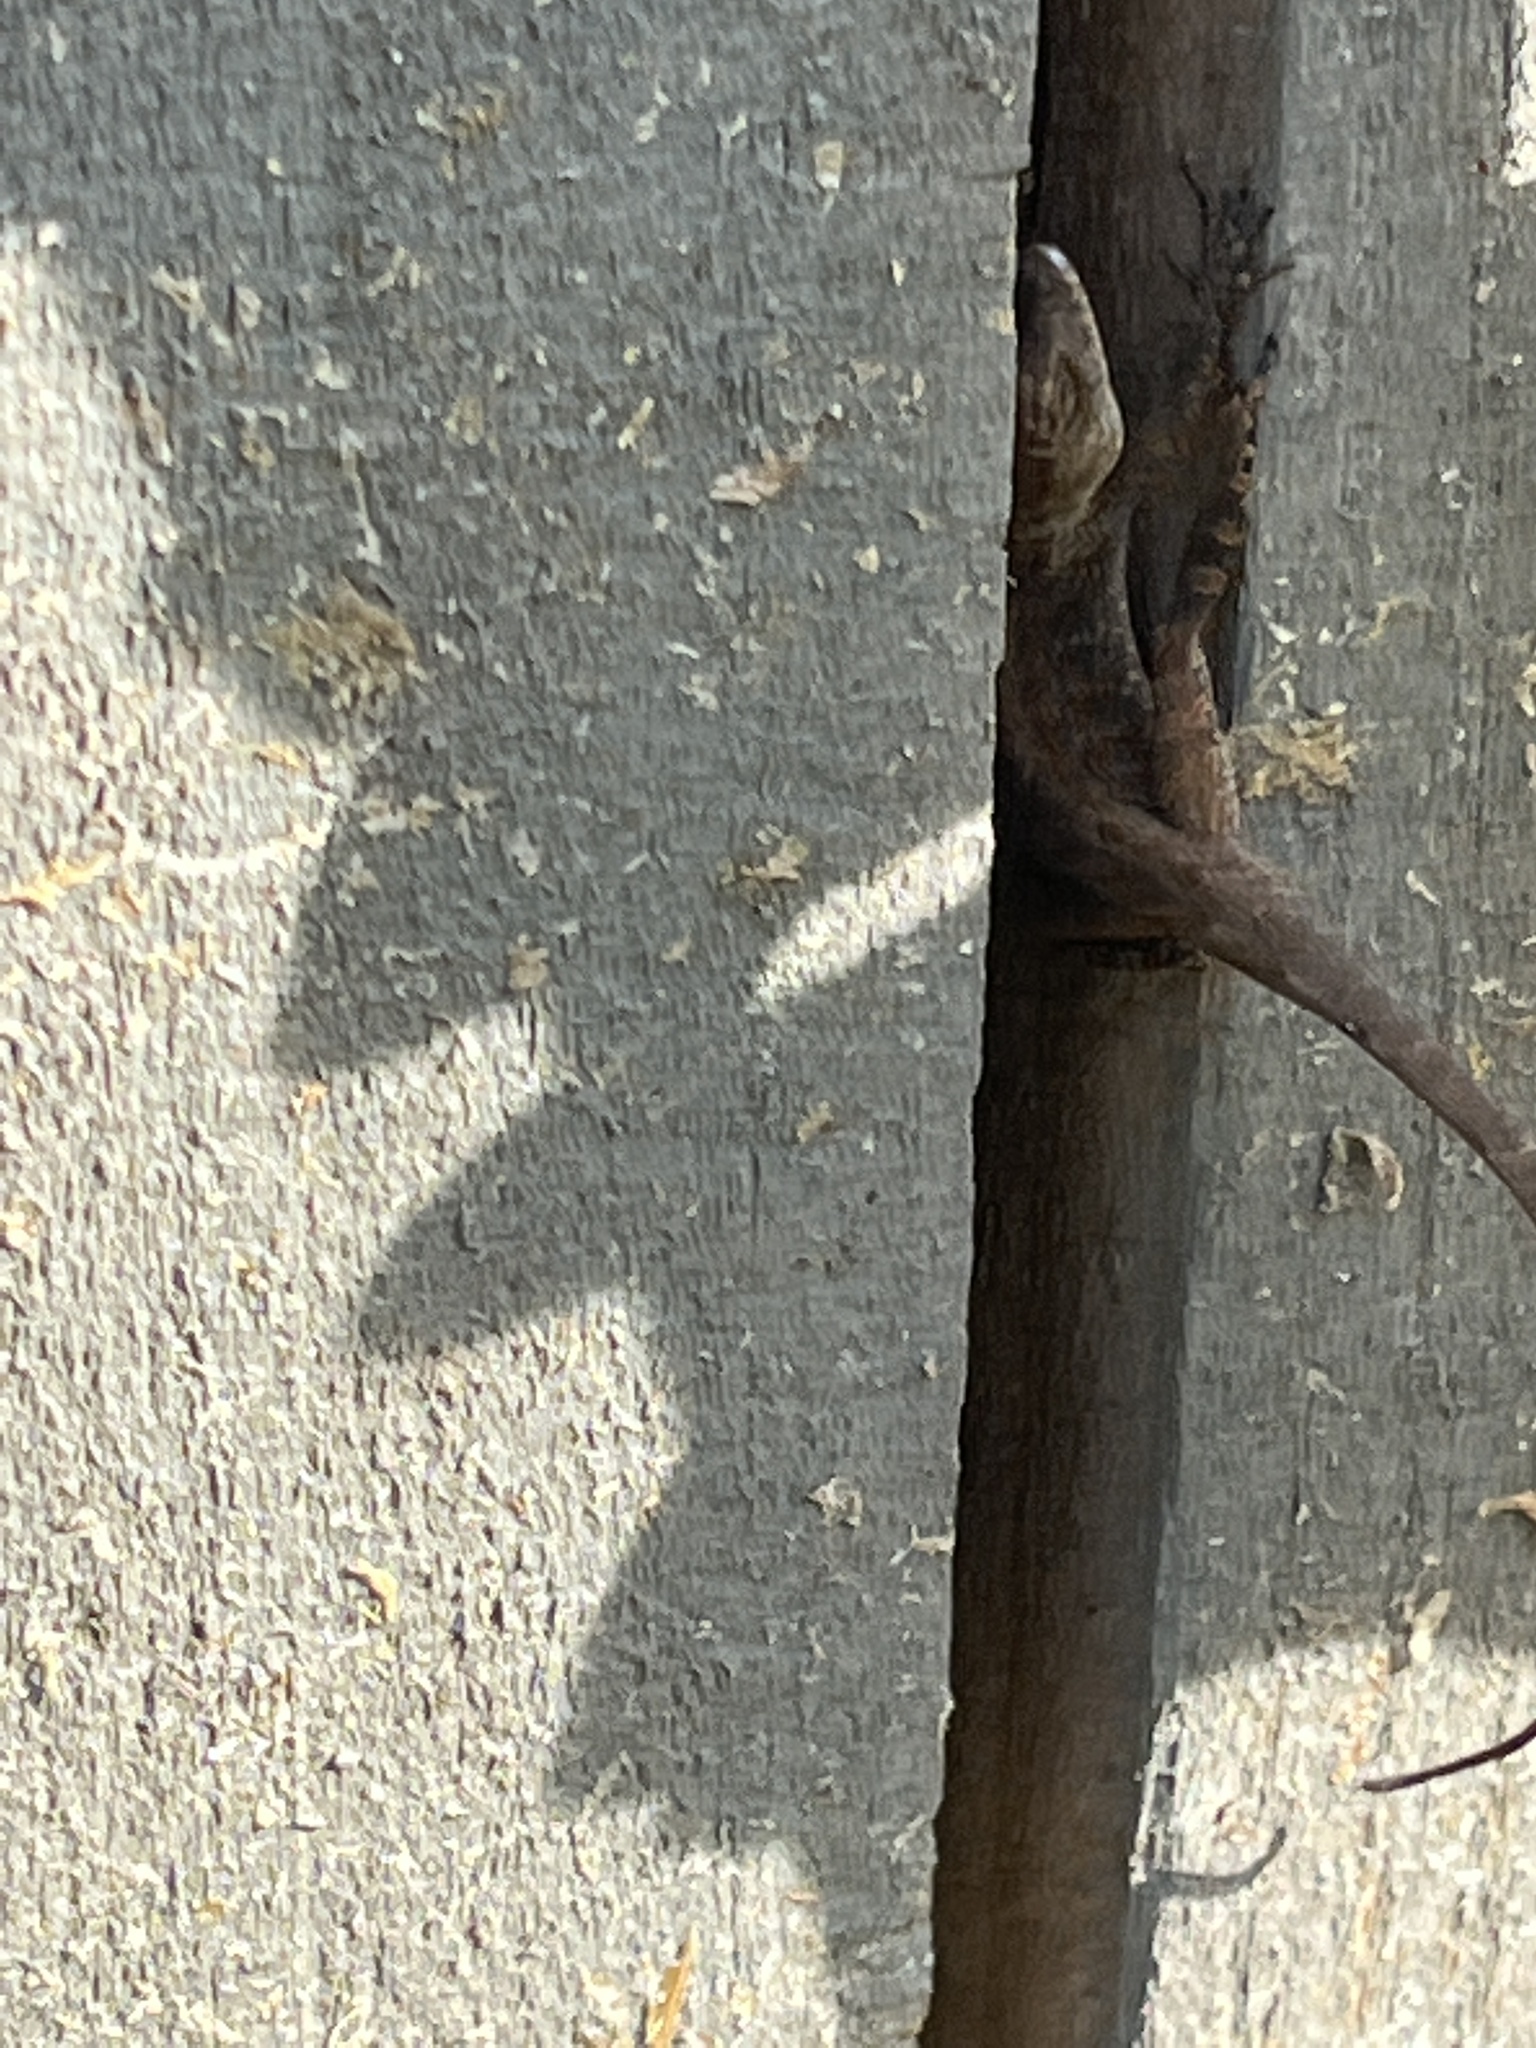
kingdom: Animalia
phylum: Chordata
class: Squamata
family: Dactyloidae
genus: Anolis
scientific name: Anolis sagrei
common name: Brown anole
